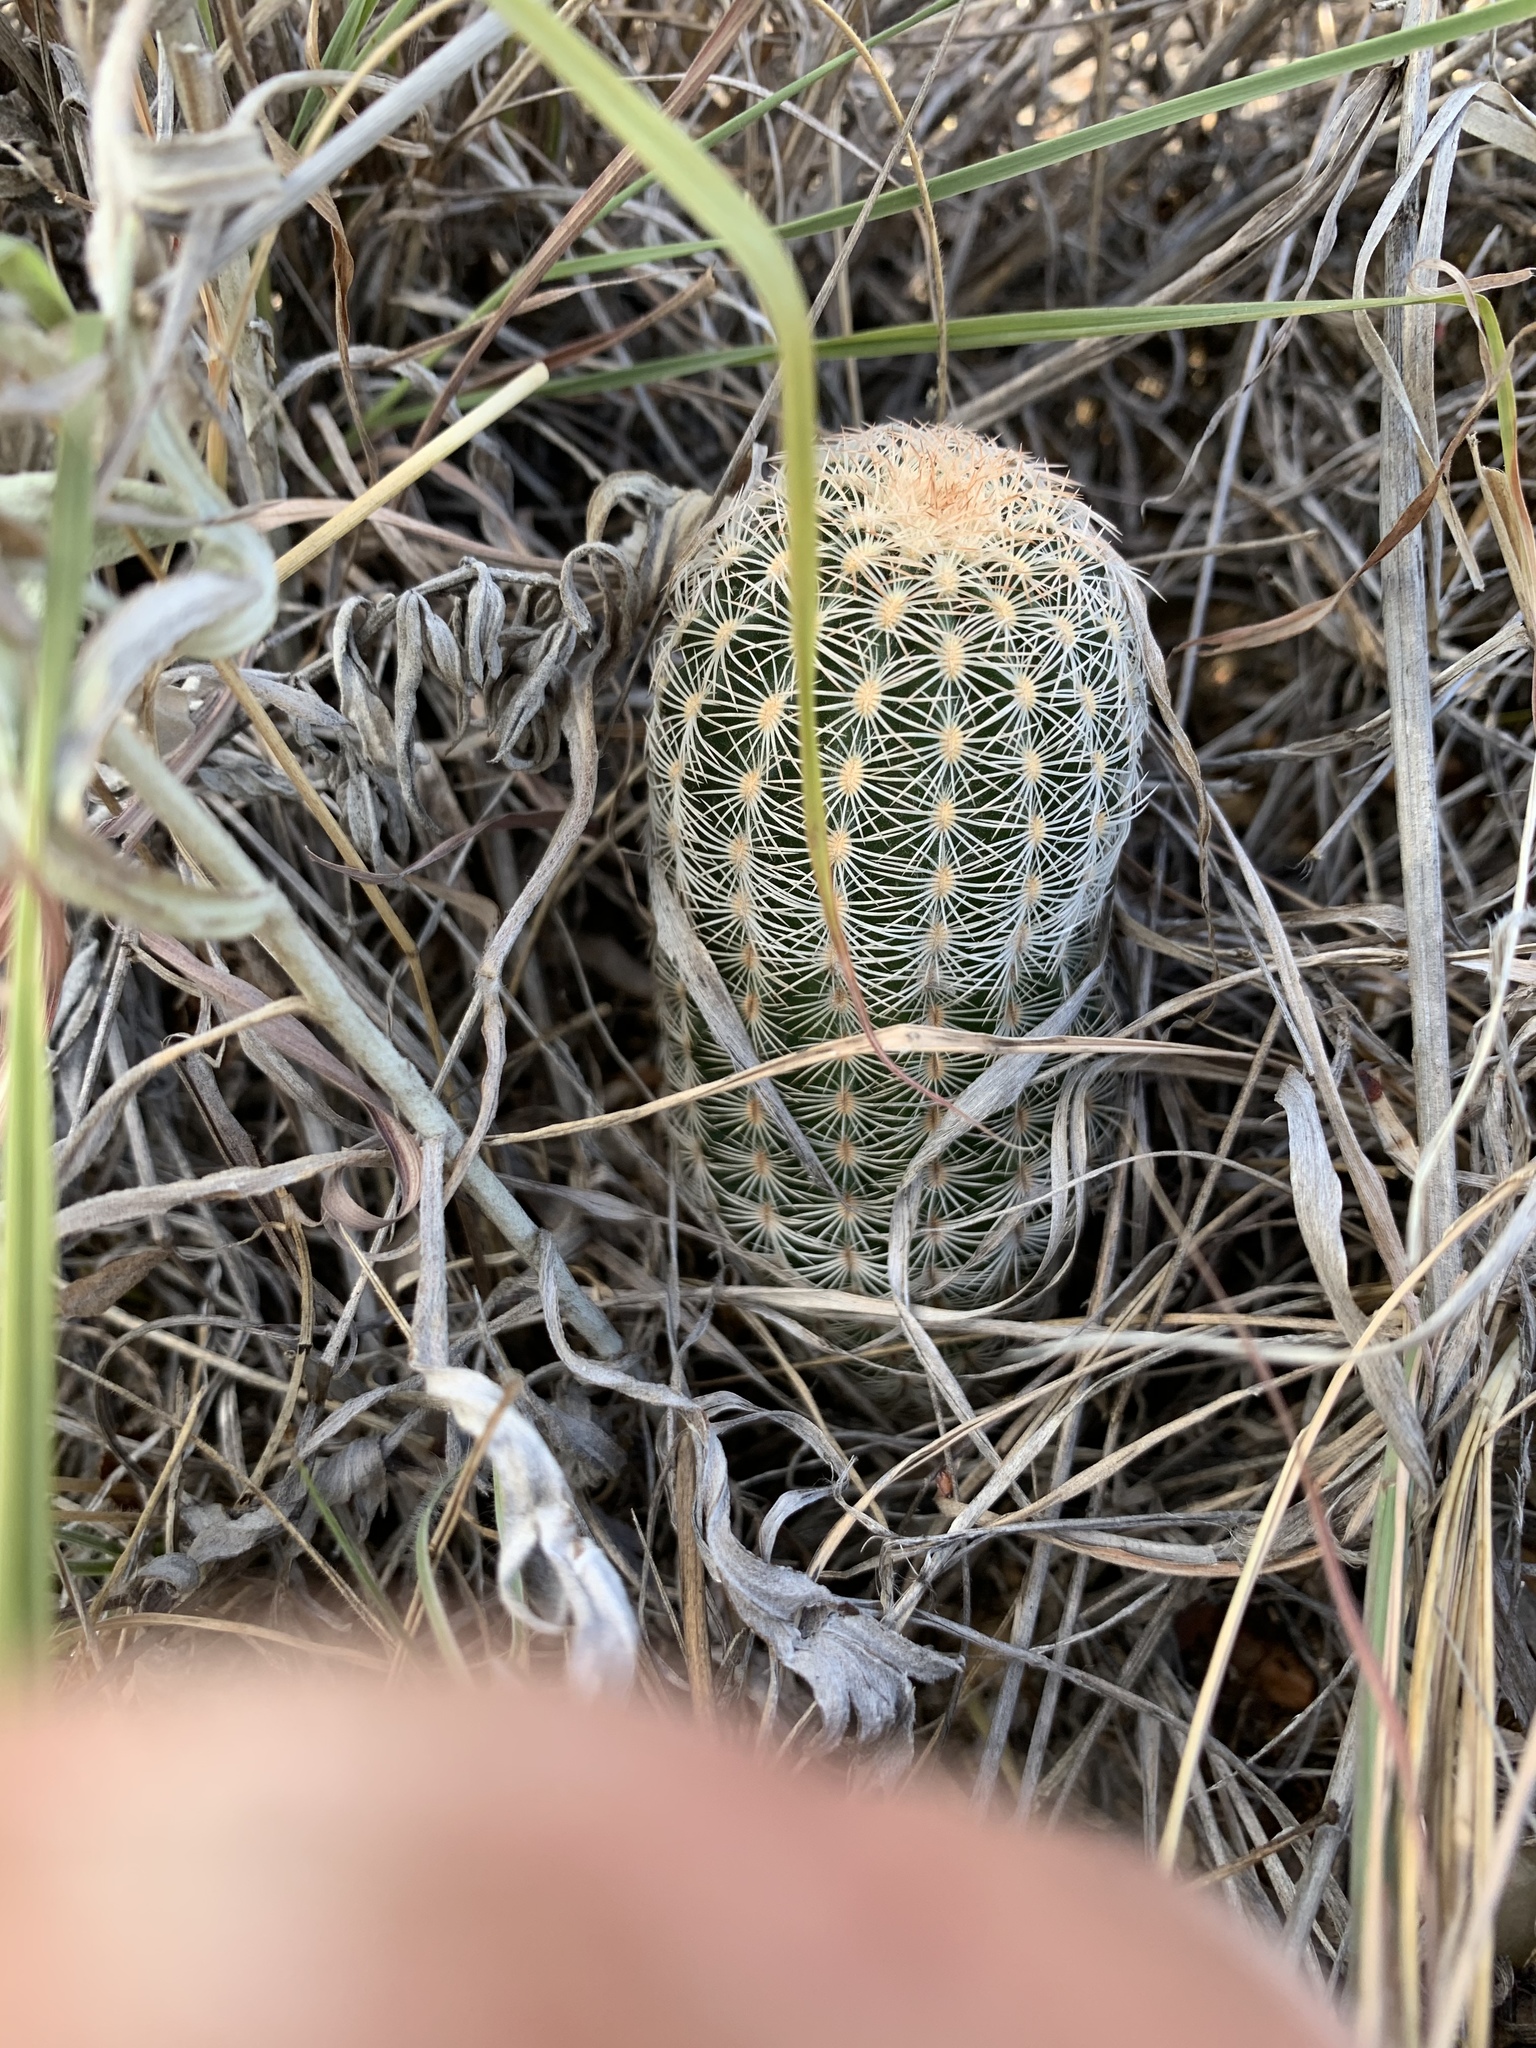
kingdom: Plantae
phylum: Tracheophyta
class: Magnoliopsida
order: Caryophyllales
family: Cactaceae
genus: Echinocereus
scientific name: Echinocereus reichenbachii
